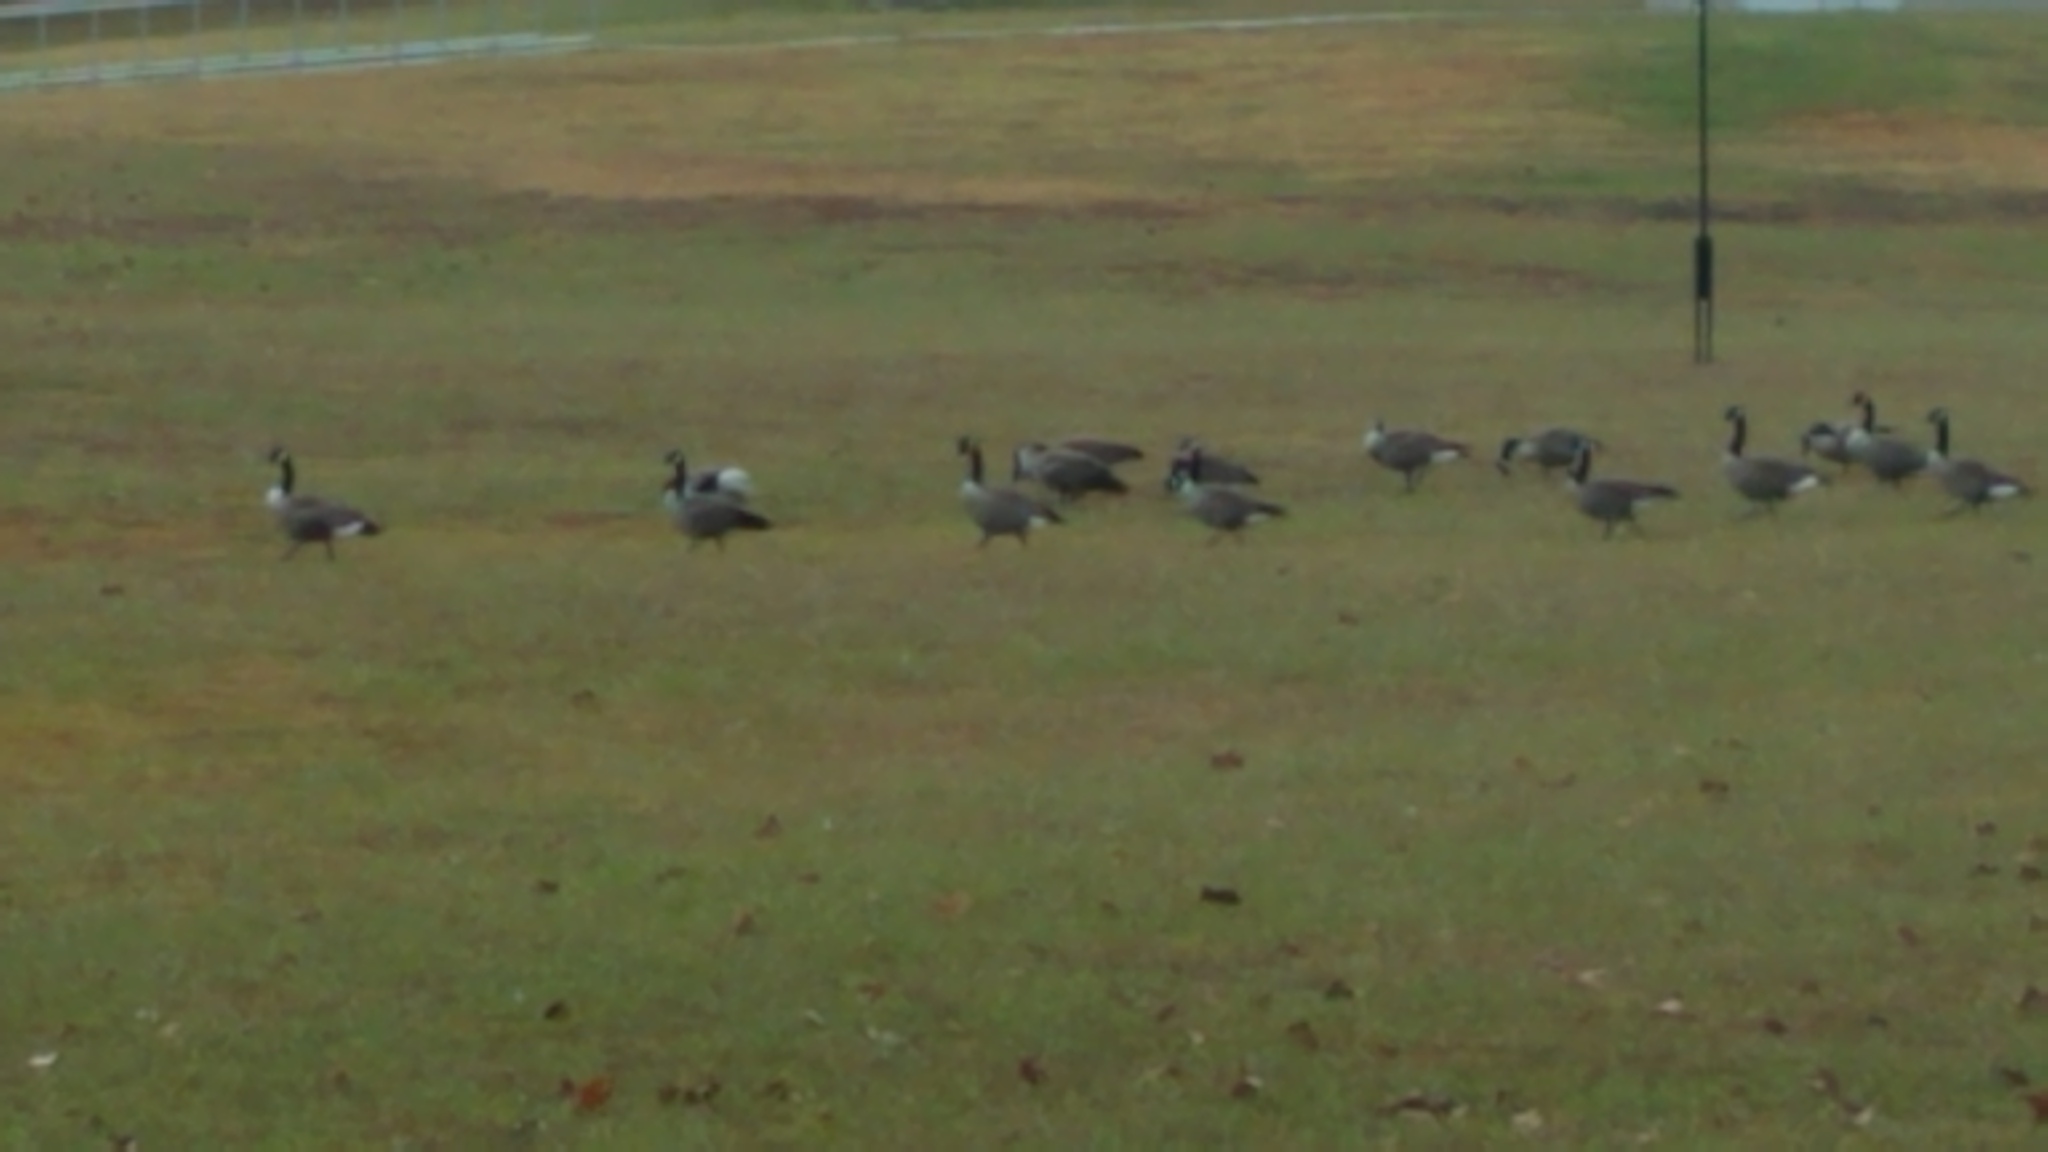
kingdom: Animalia
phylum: Chordata
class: Aves
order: Anseriformes
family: Anatidae
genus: Branta
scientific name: Branta canadensis
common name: Canada goose
